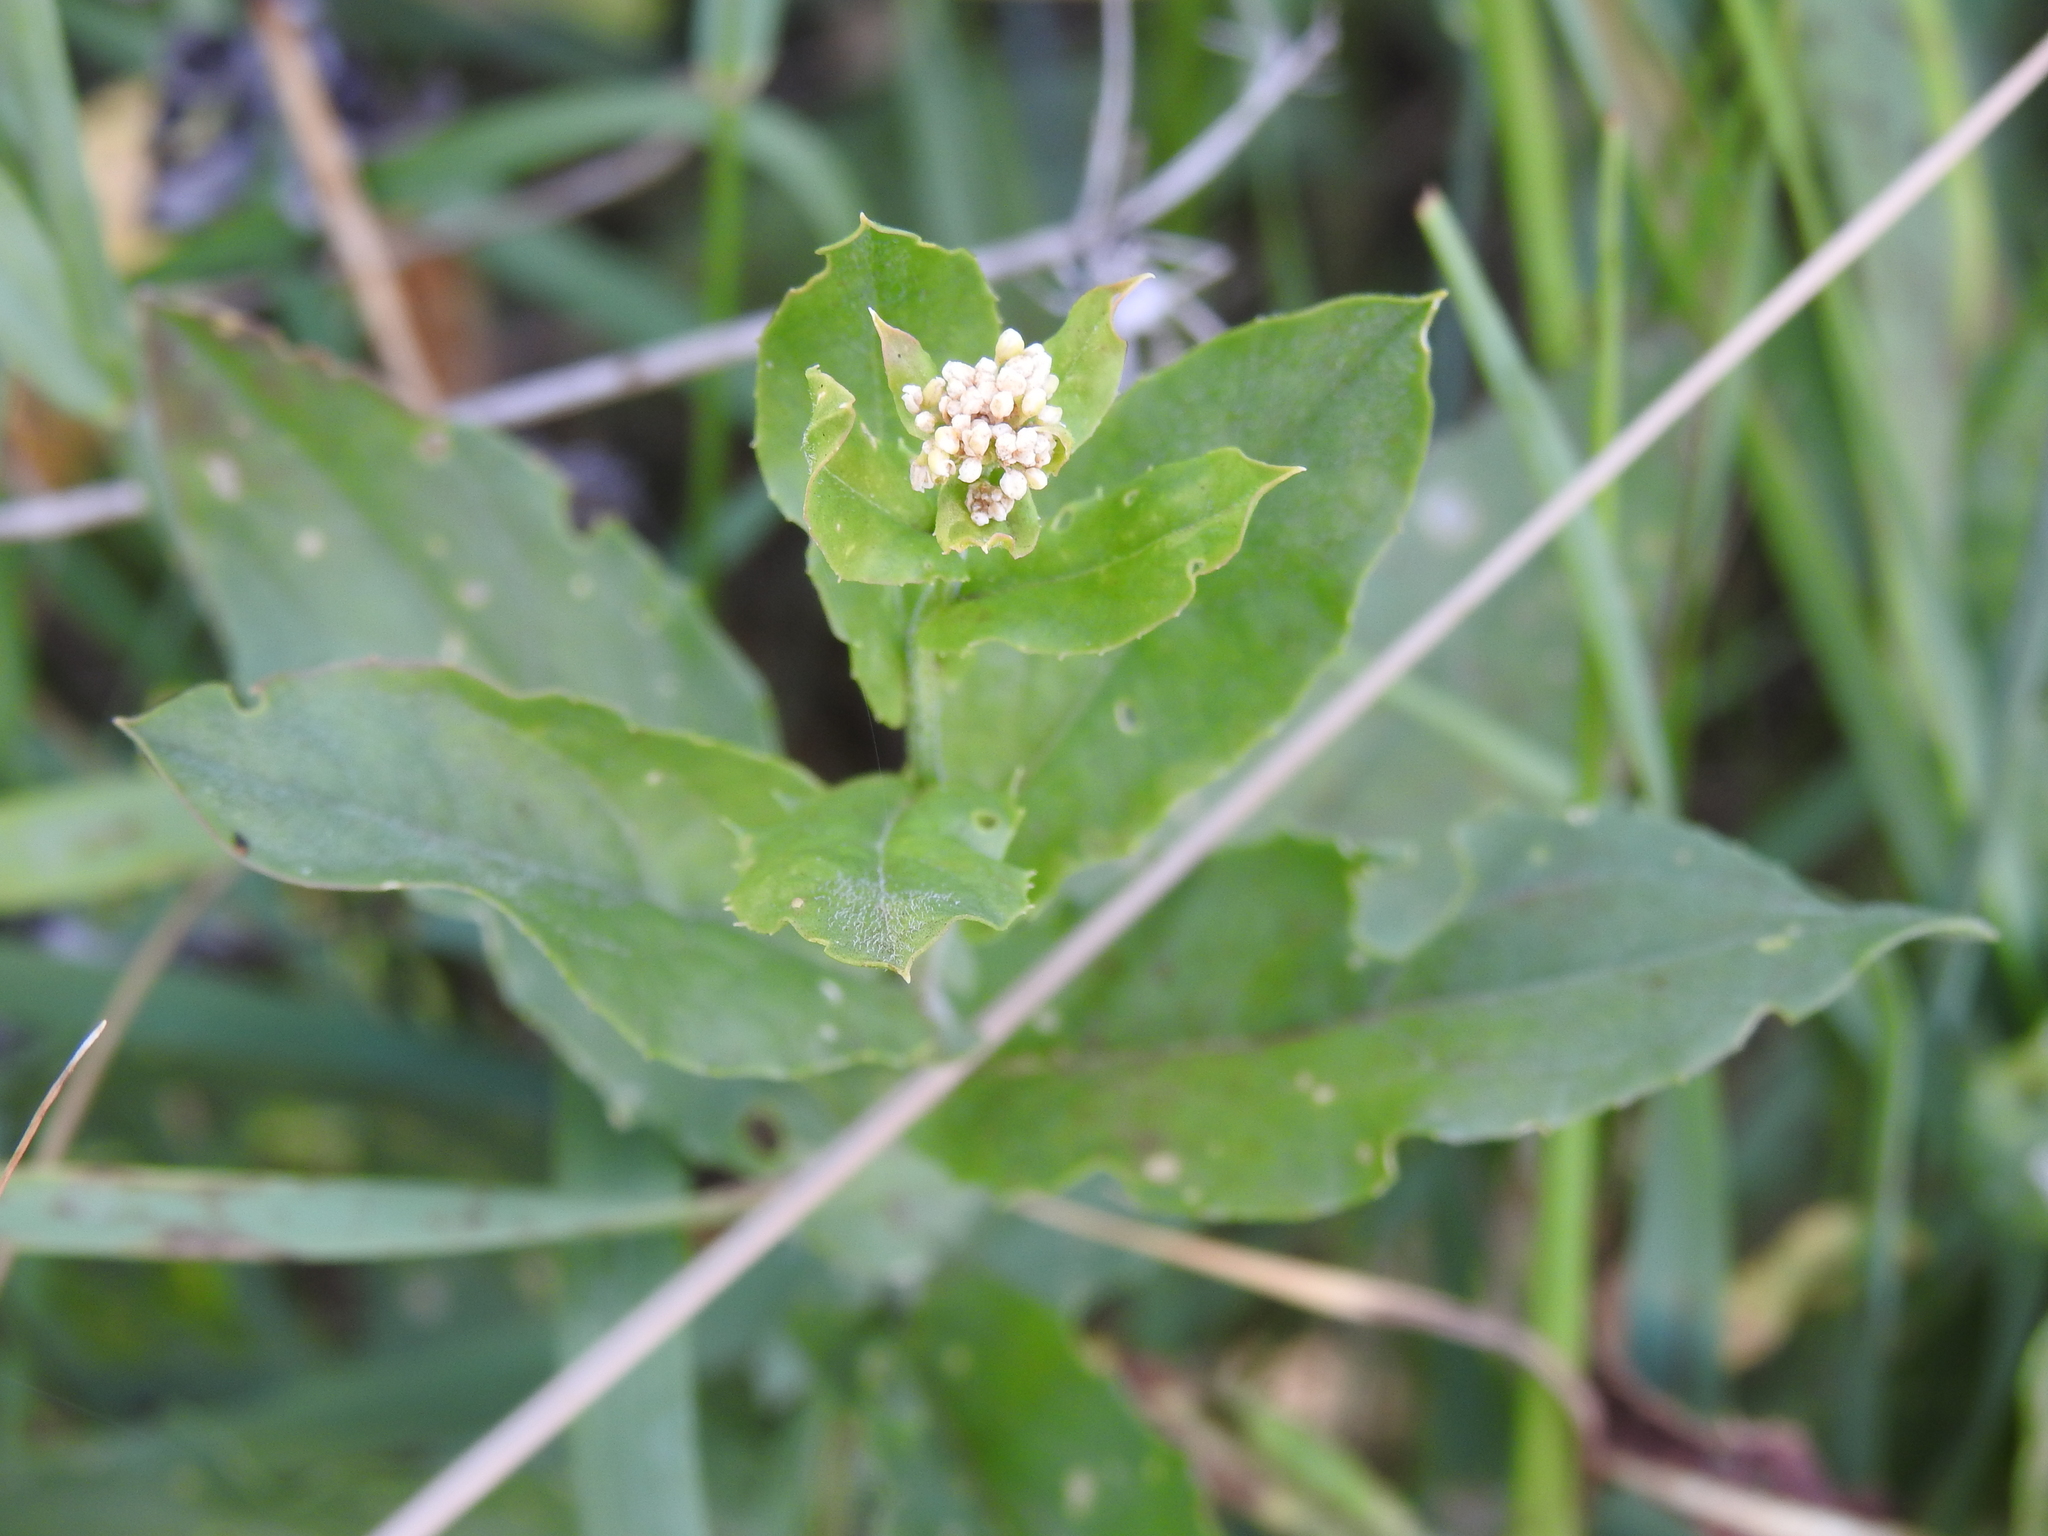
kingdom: Plantae
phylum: Tracheophyta
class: Magnoliopsida
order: Brassicales
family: Brassicaceae
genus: Lepidium
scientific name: Lepidium draba
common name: Hoary cress
